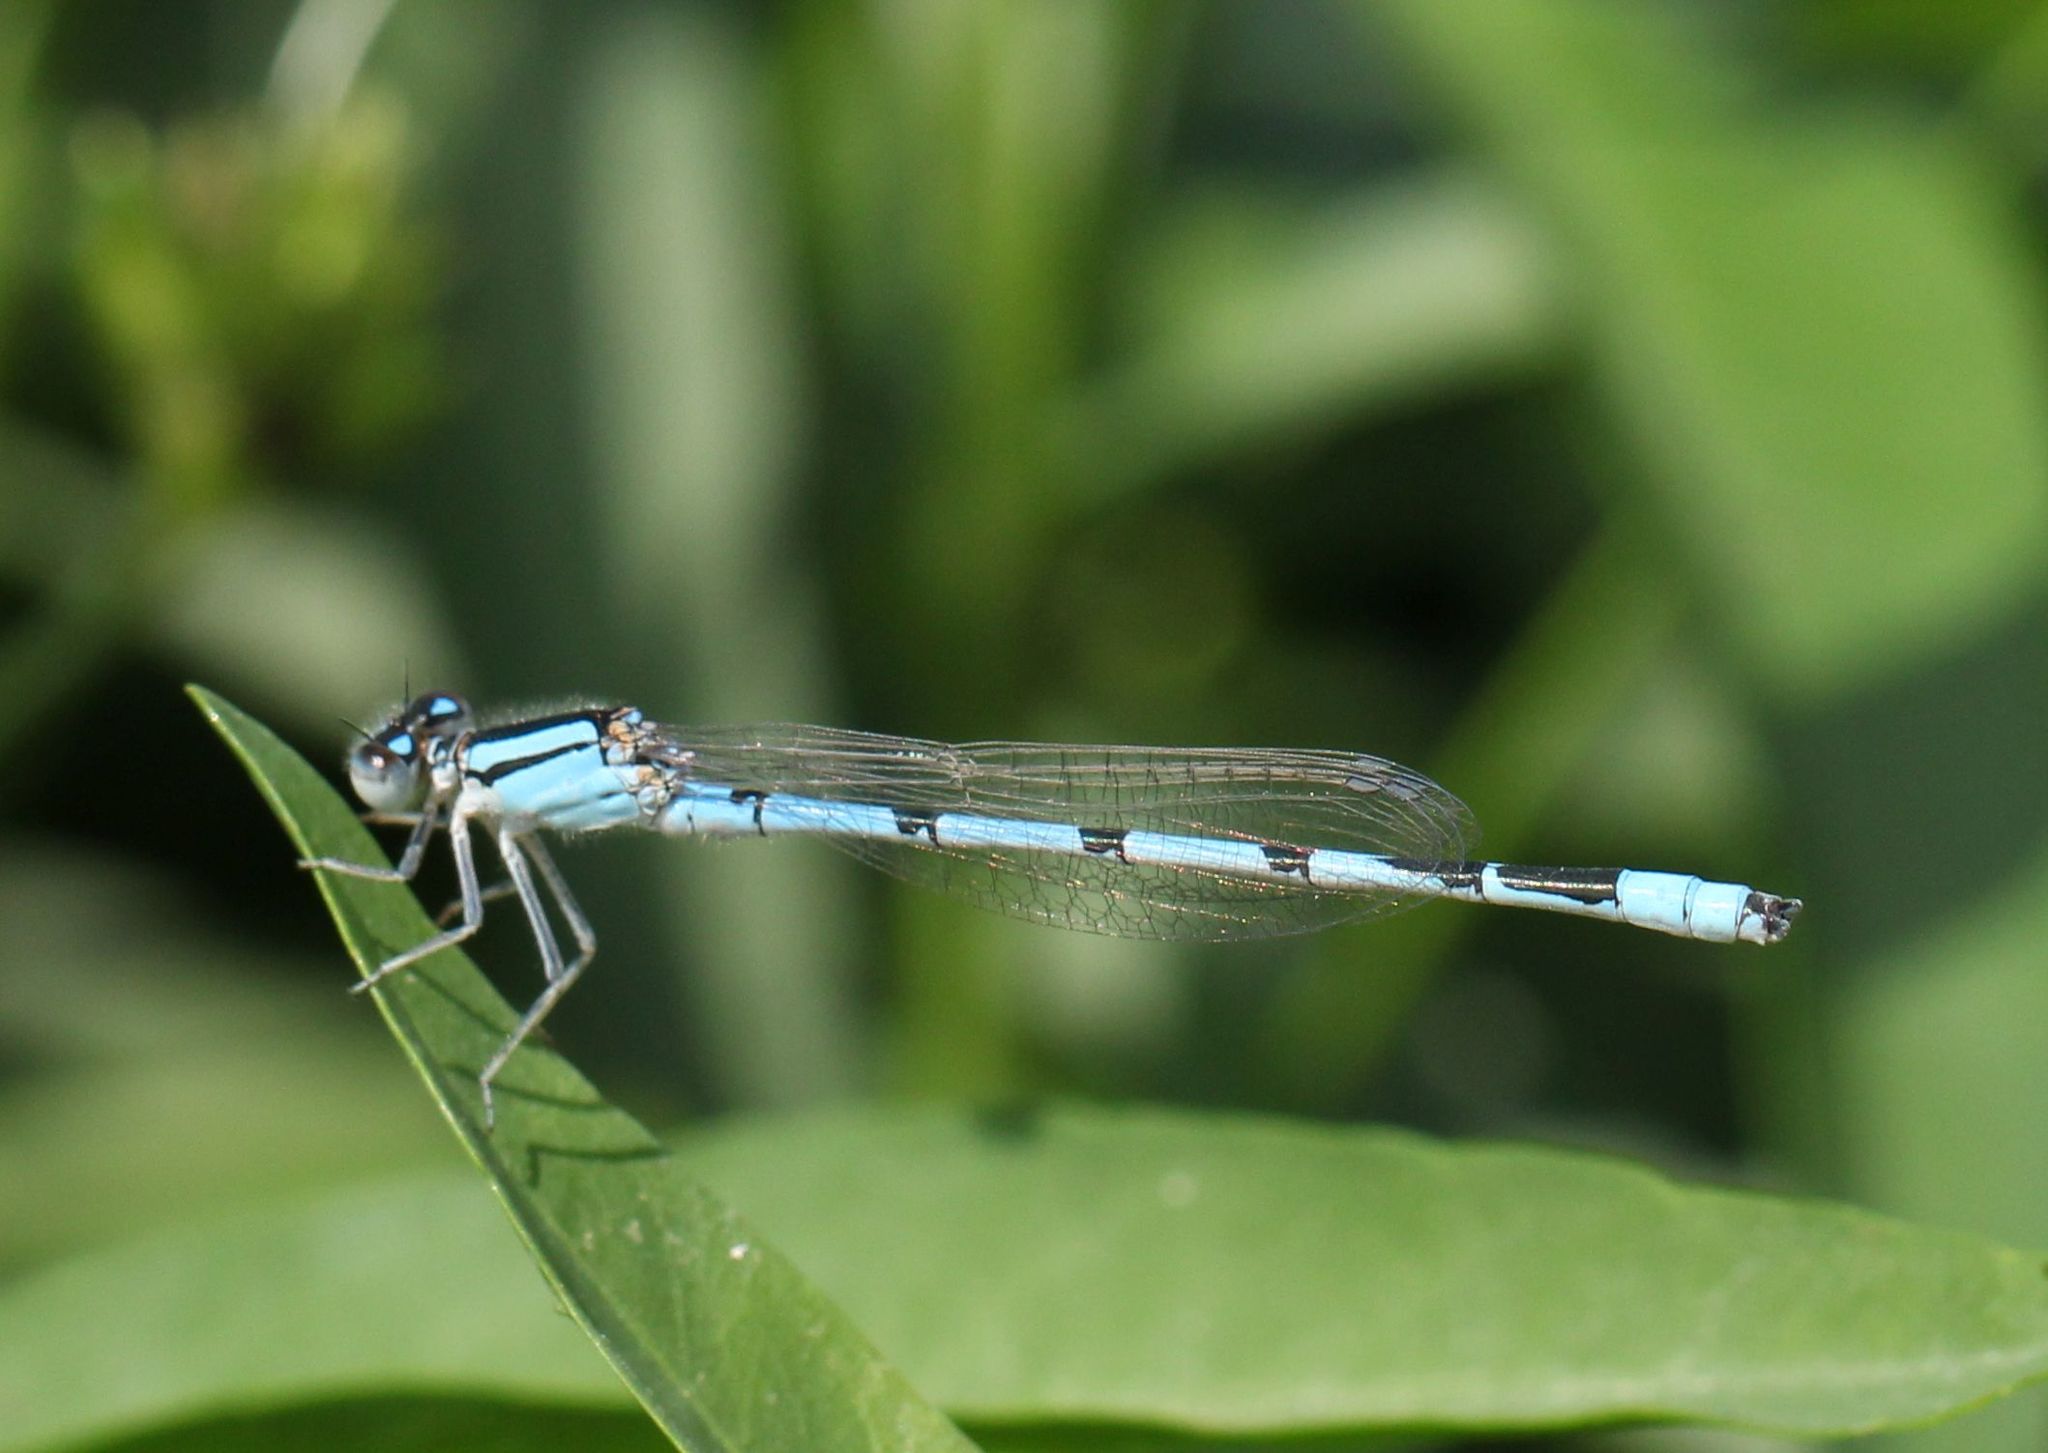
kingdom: Animalia
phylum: Arthropoda
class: Insecta
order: Odonata
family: Coenagrionidae
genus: Enallagma
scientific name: Enallagma civile
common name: Damselfly
